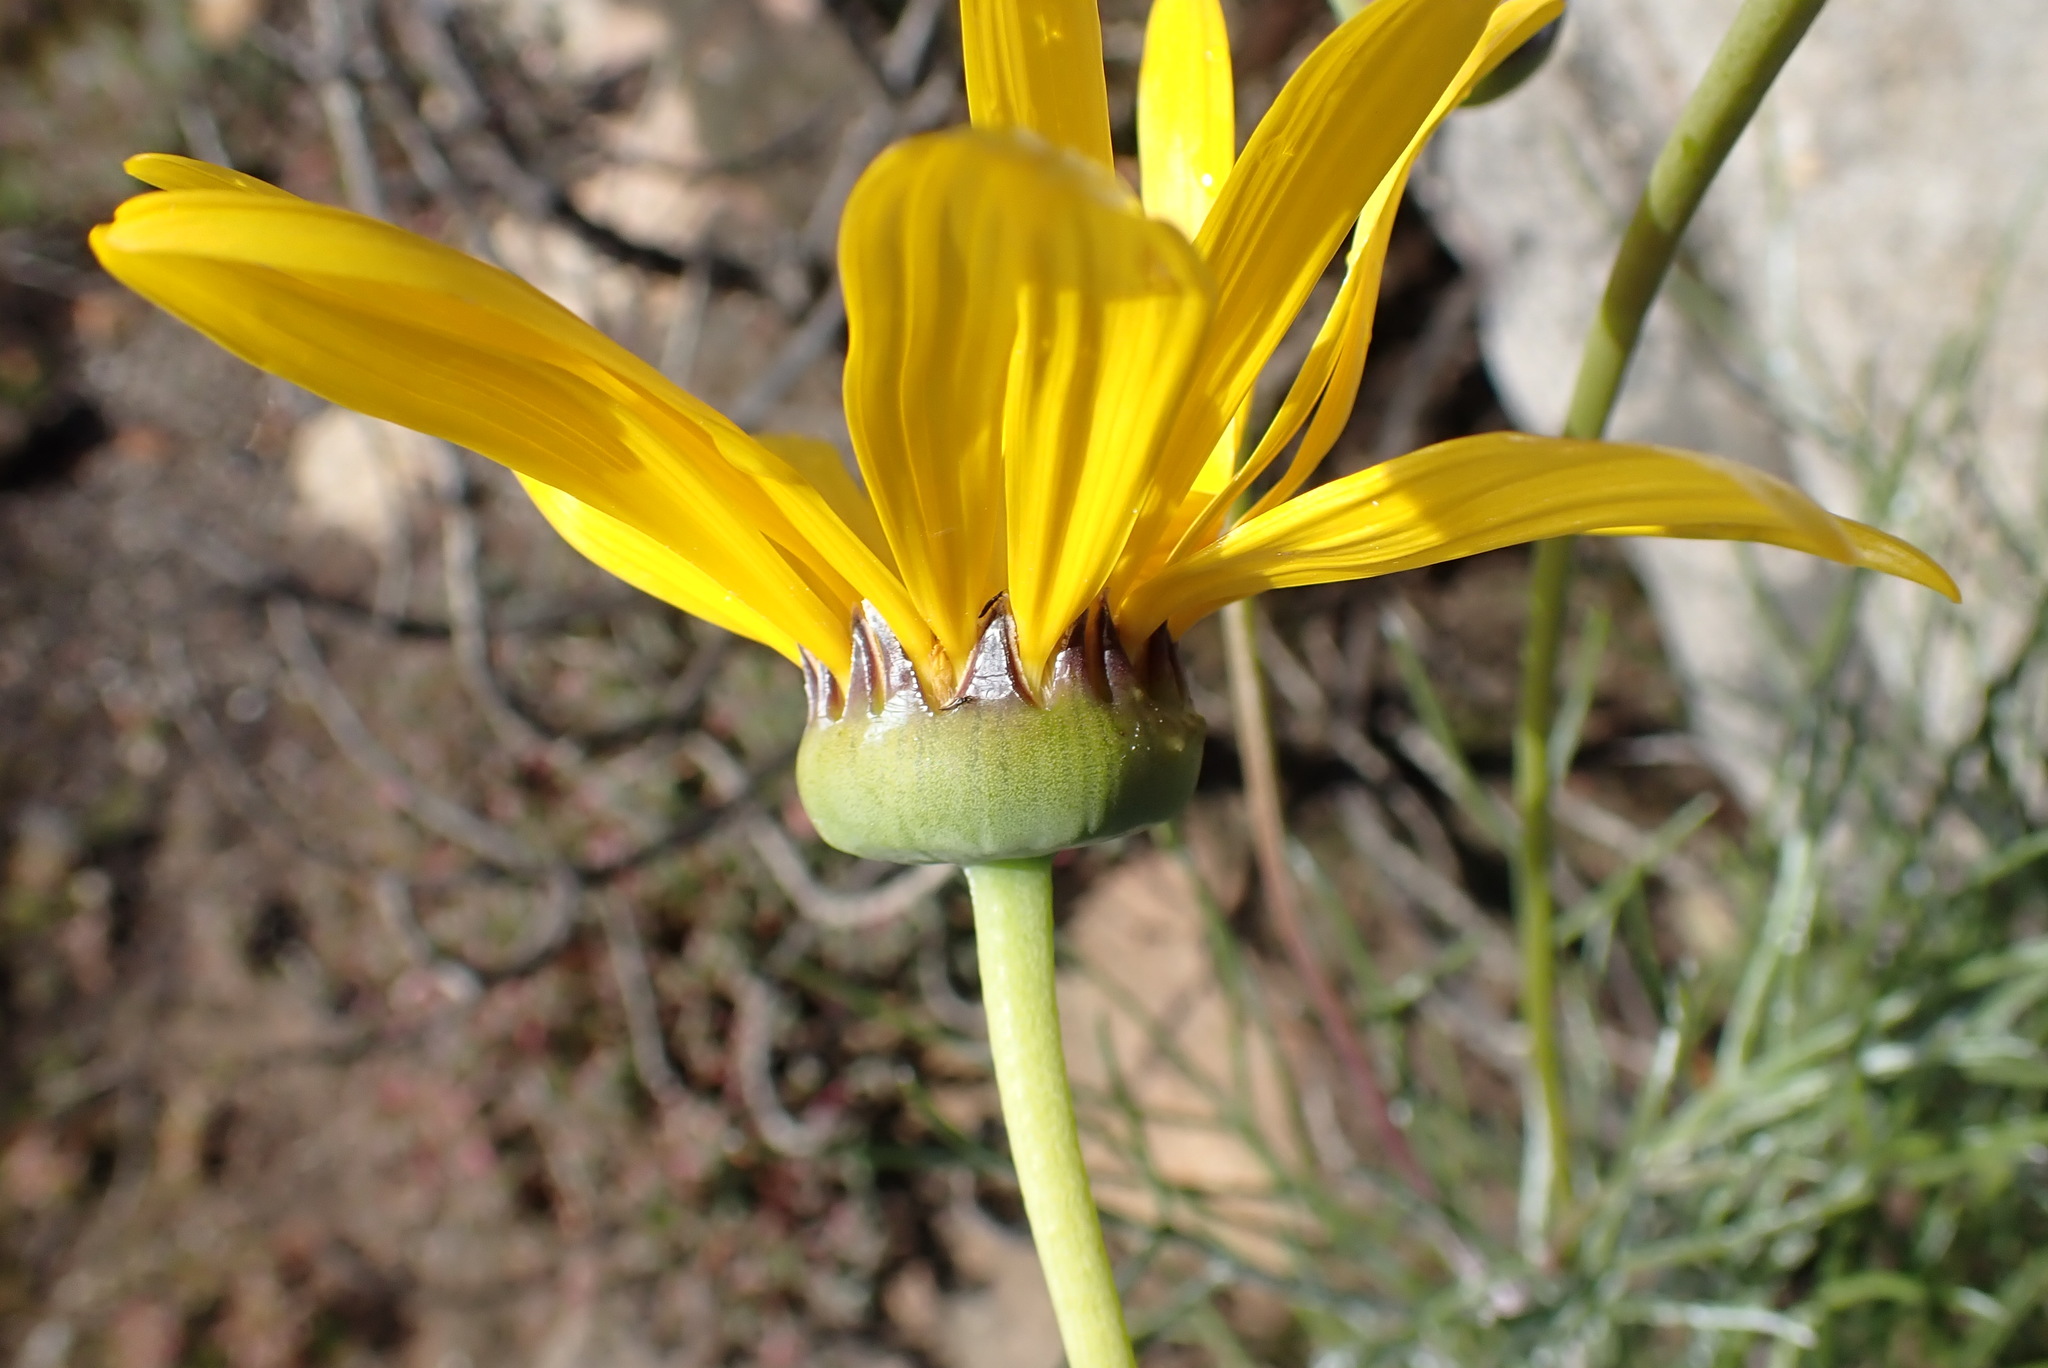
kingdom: Plantae
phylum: Tracheophyta
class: Magnoliopsida
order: Asterales
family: Asteraceae
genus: Euryops
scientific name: Euryops speciosissimus
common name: Clanwilliam daisy
